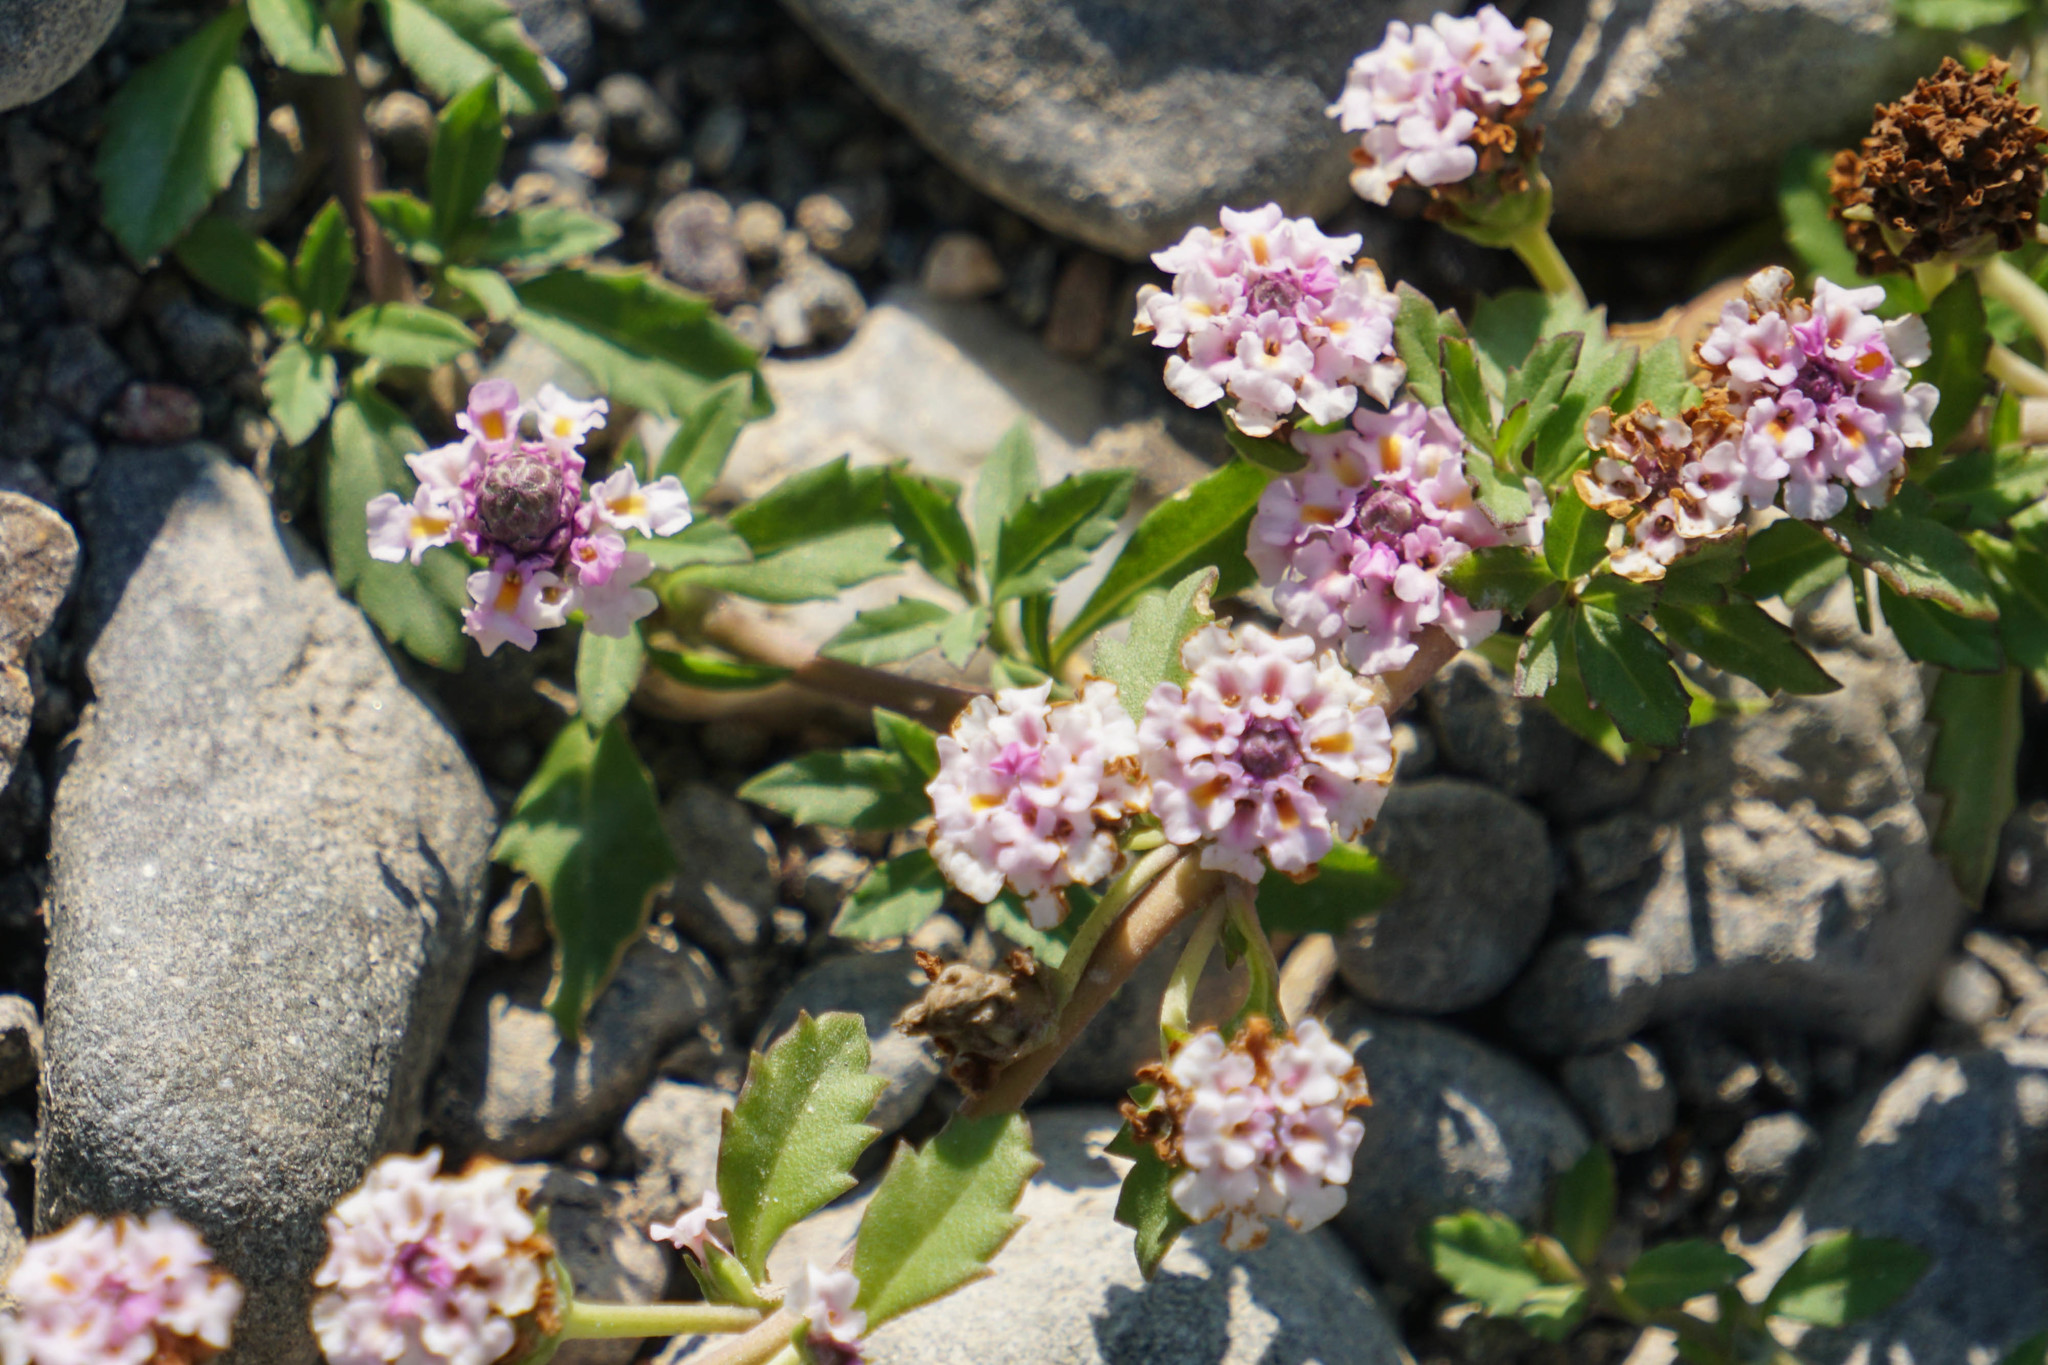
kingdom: Plantae
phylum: Tracheophyta
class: Magnoliopsida
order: Lamiales
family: Verbenaceae
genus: Phyla
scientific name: Phyla nodiflora
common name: Frogfruit
